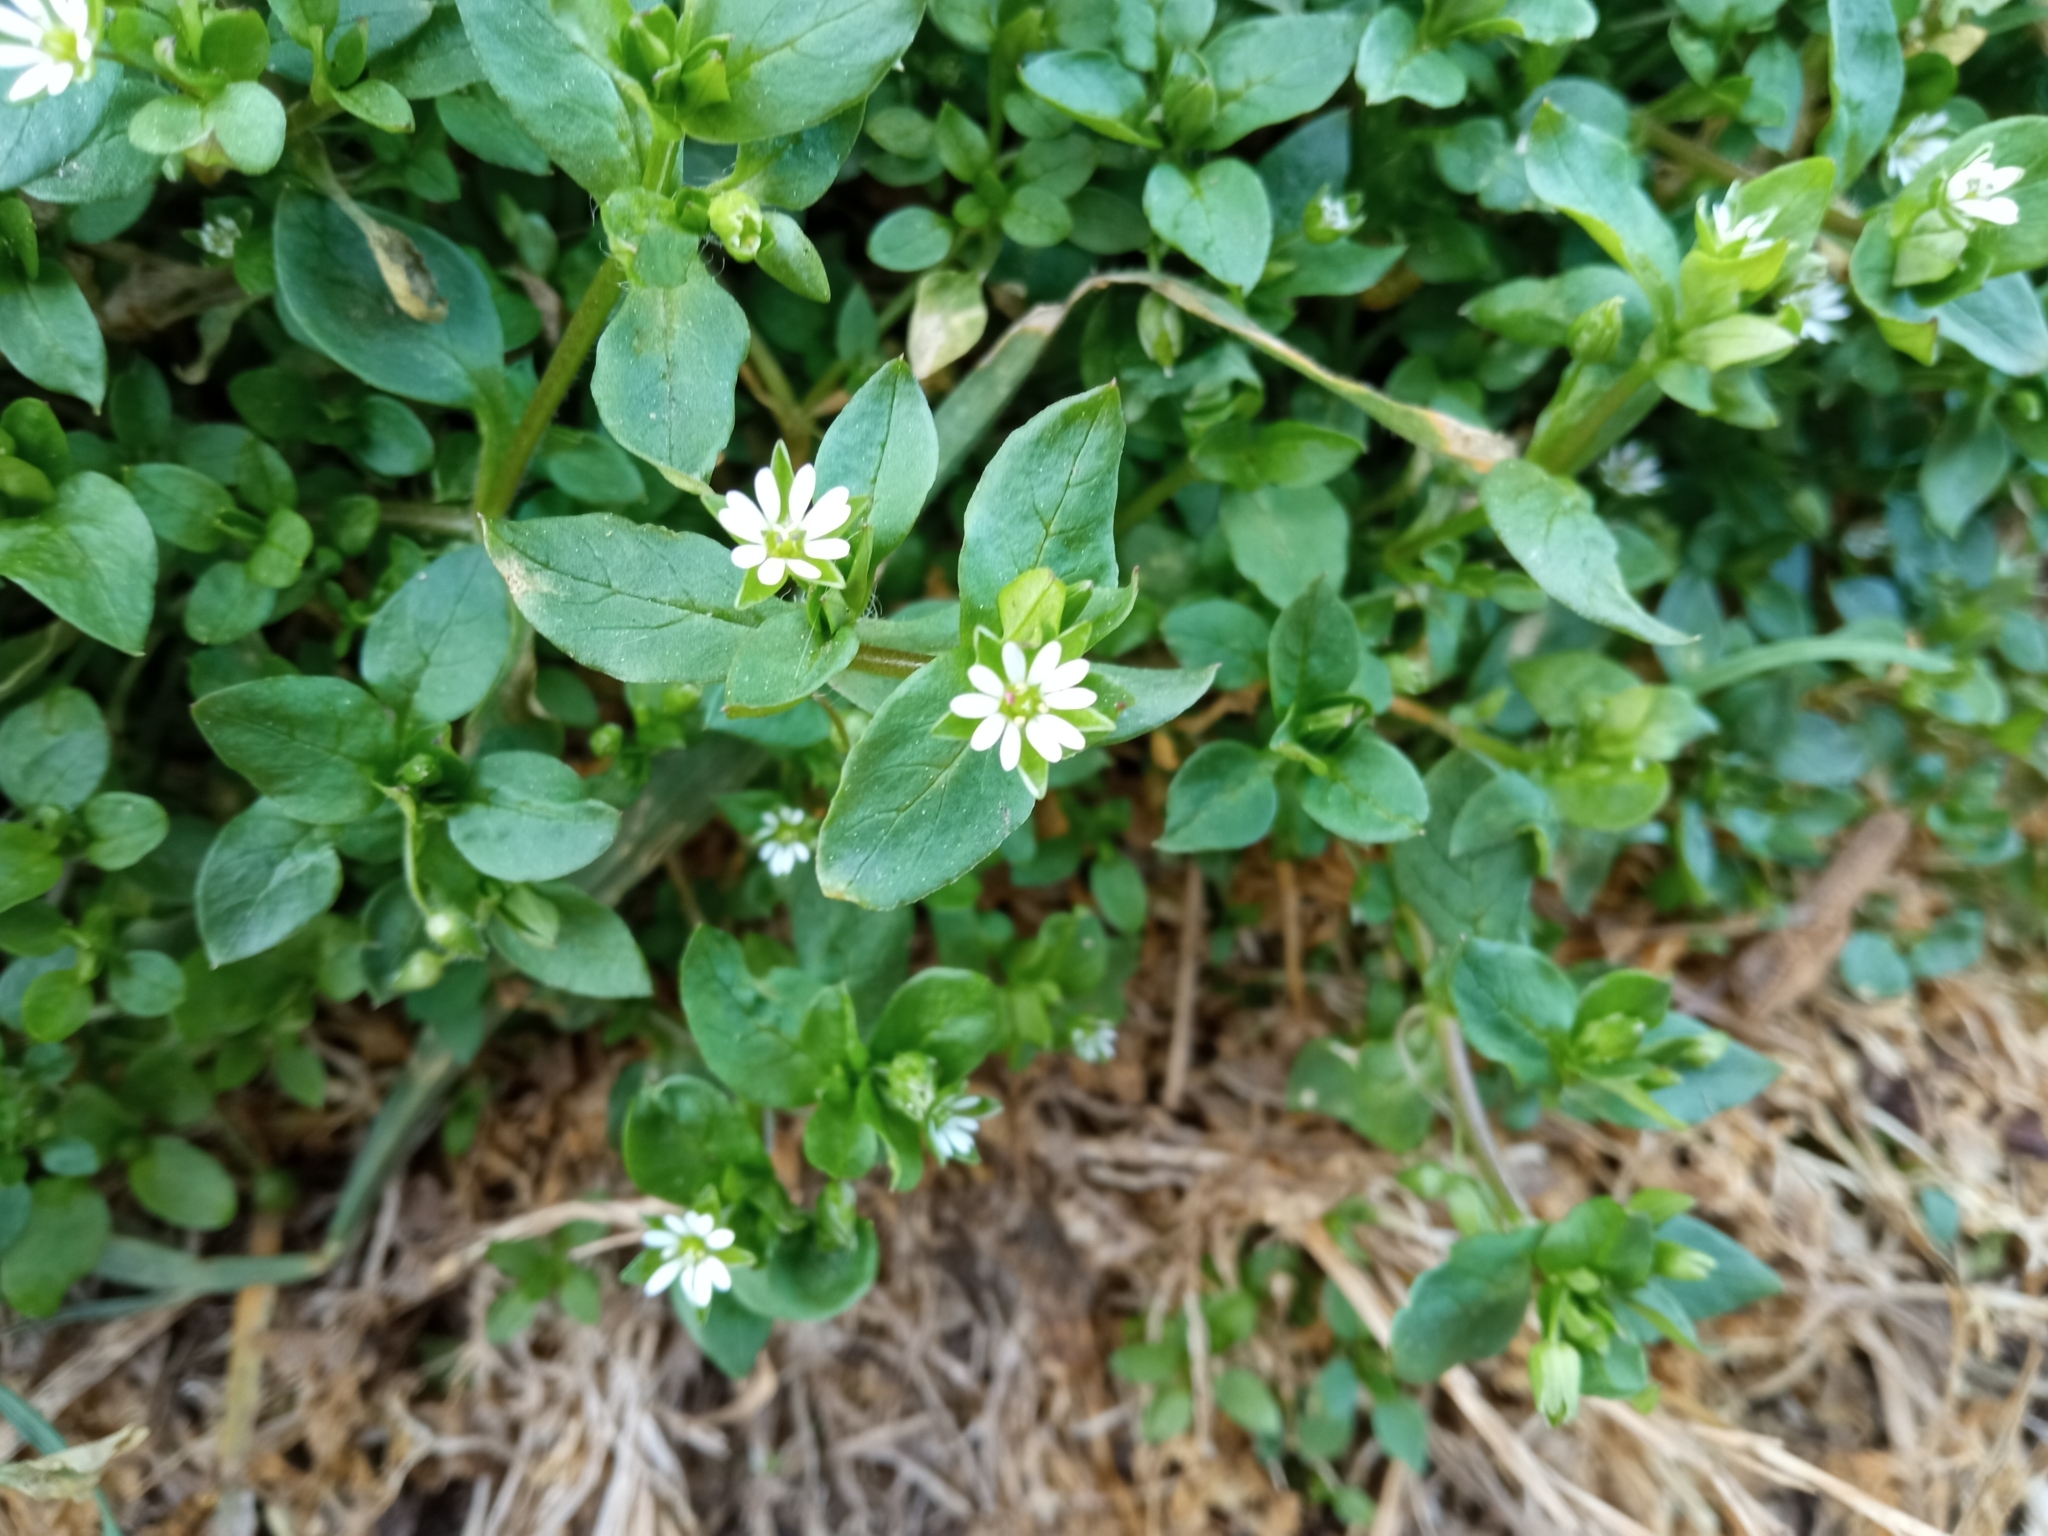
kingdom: Plantae
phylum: Tracheophyta
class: Magnoliopsida
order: Caryophyllales
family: Caryophyllaceae
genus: Stellaria
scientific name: Stellaria media
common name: Common chickweed
